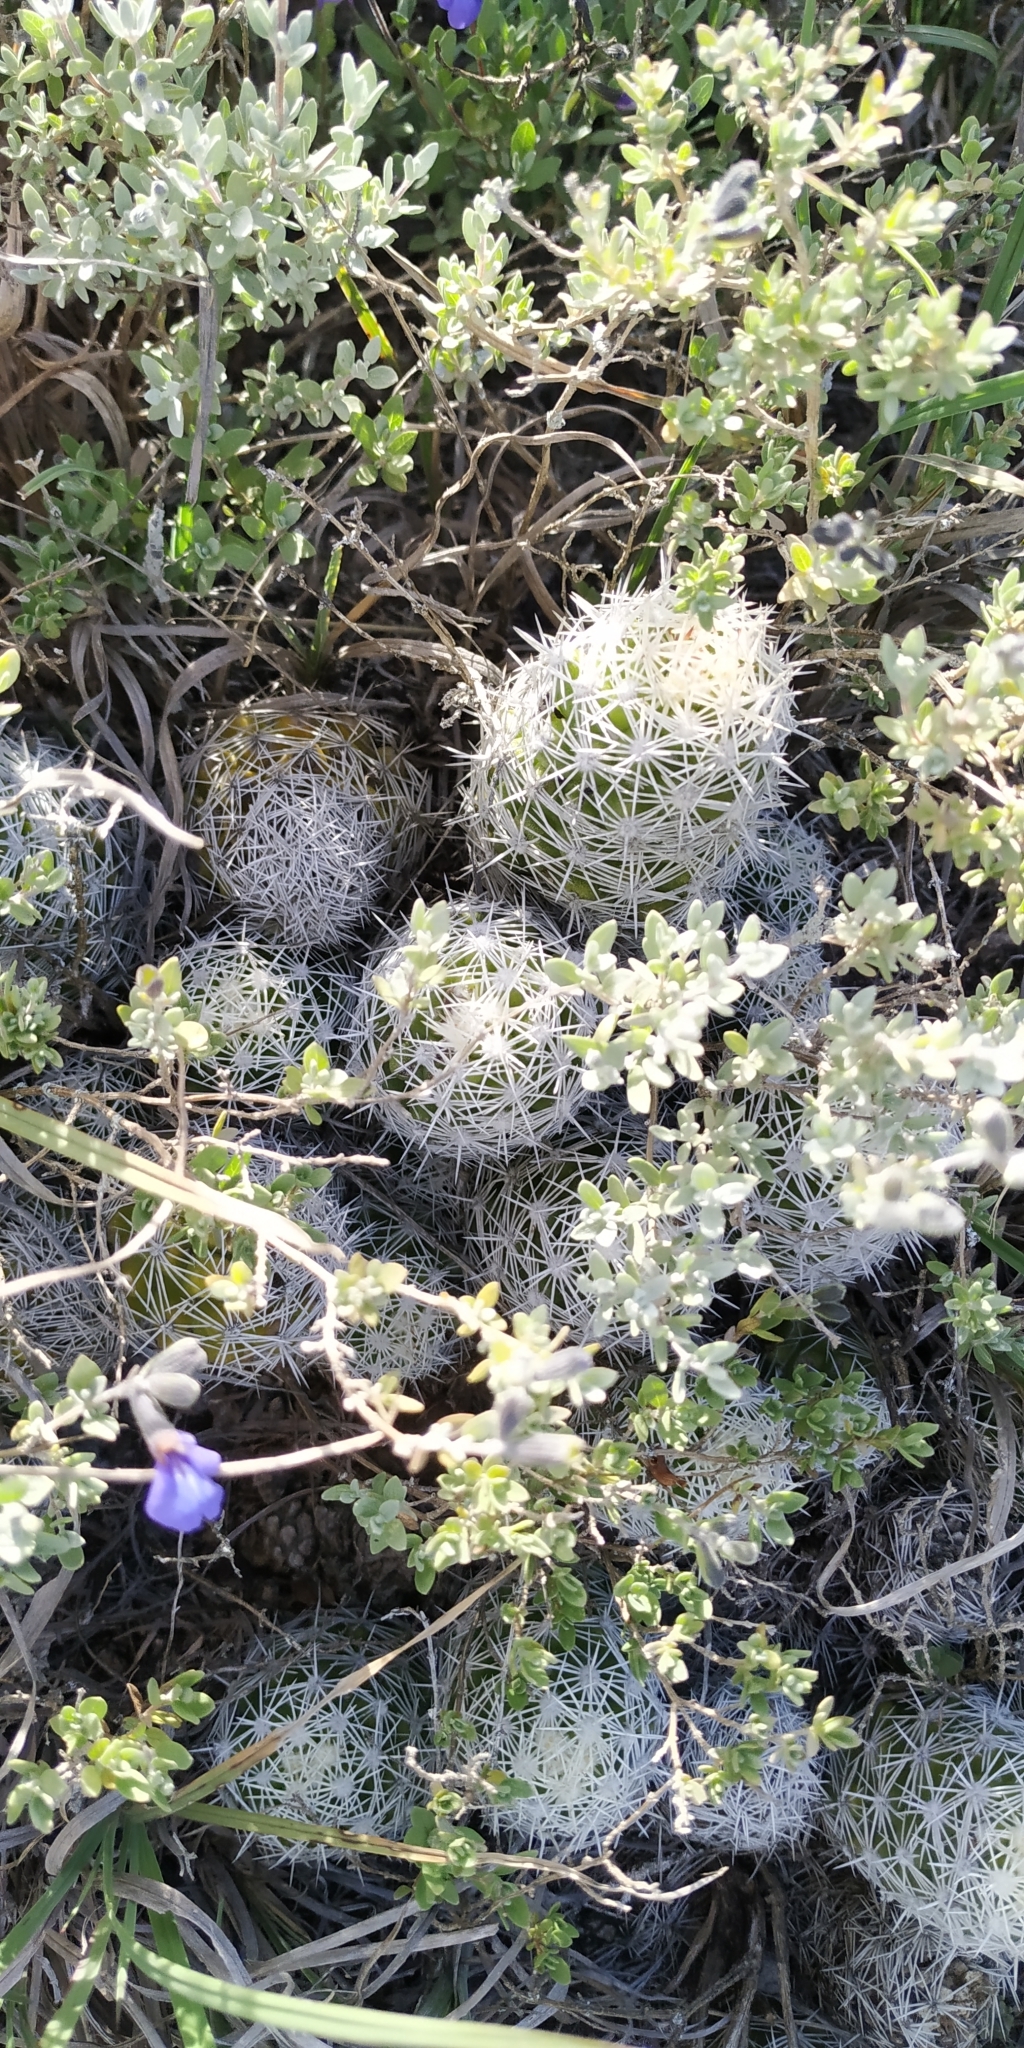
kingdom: Plantae
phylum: Tracheophyta
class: Magnoliopsida
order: Caryophyllales
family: Cactaceae
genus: Mammillaria
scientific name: Mammillaria sphacelata
